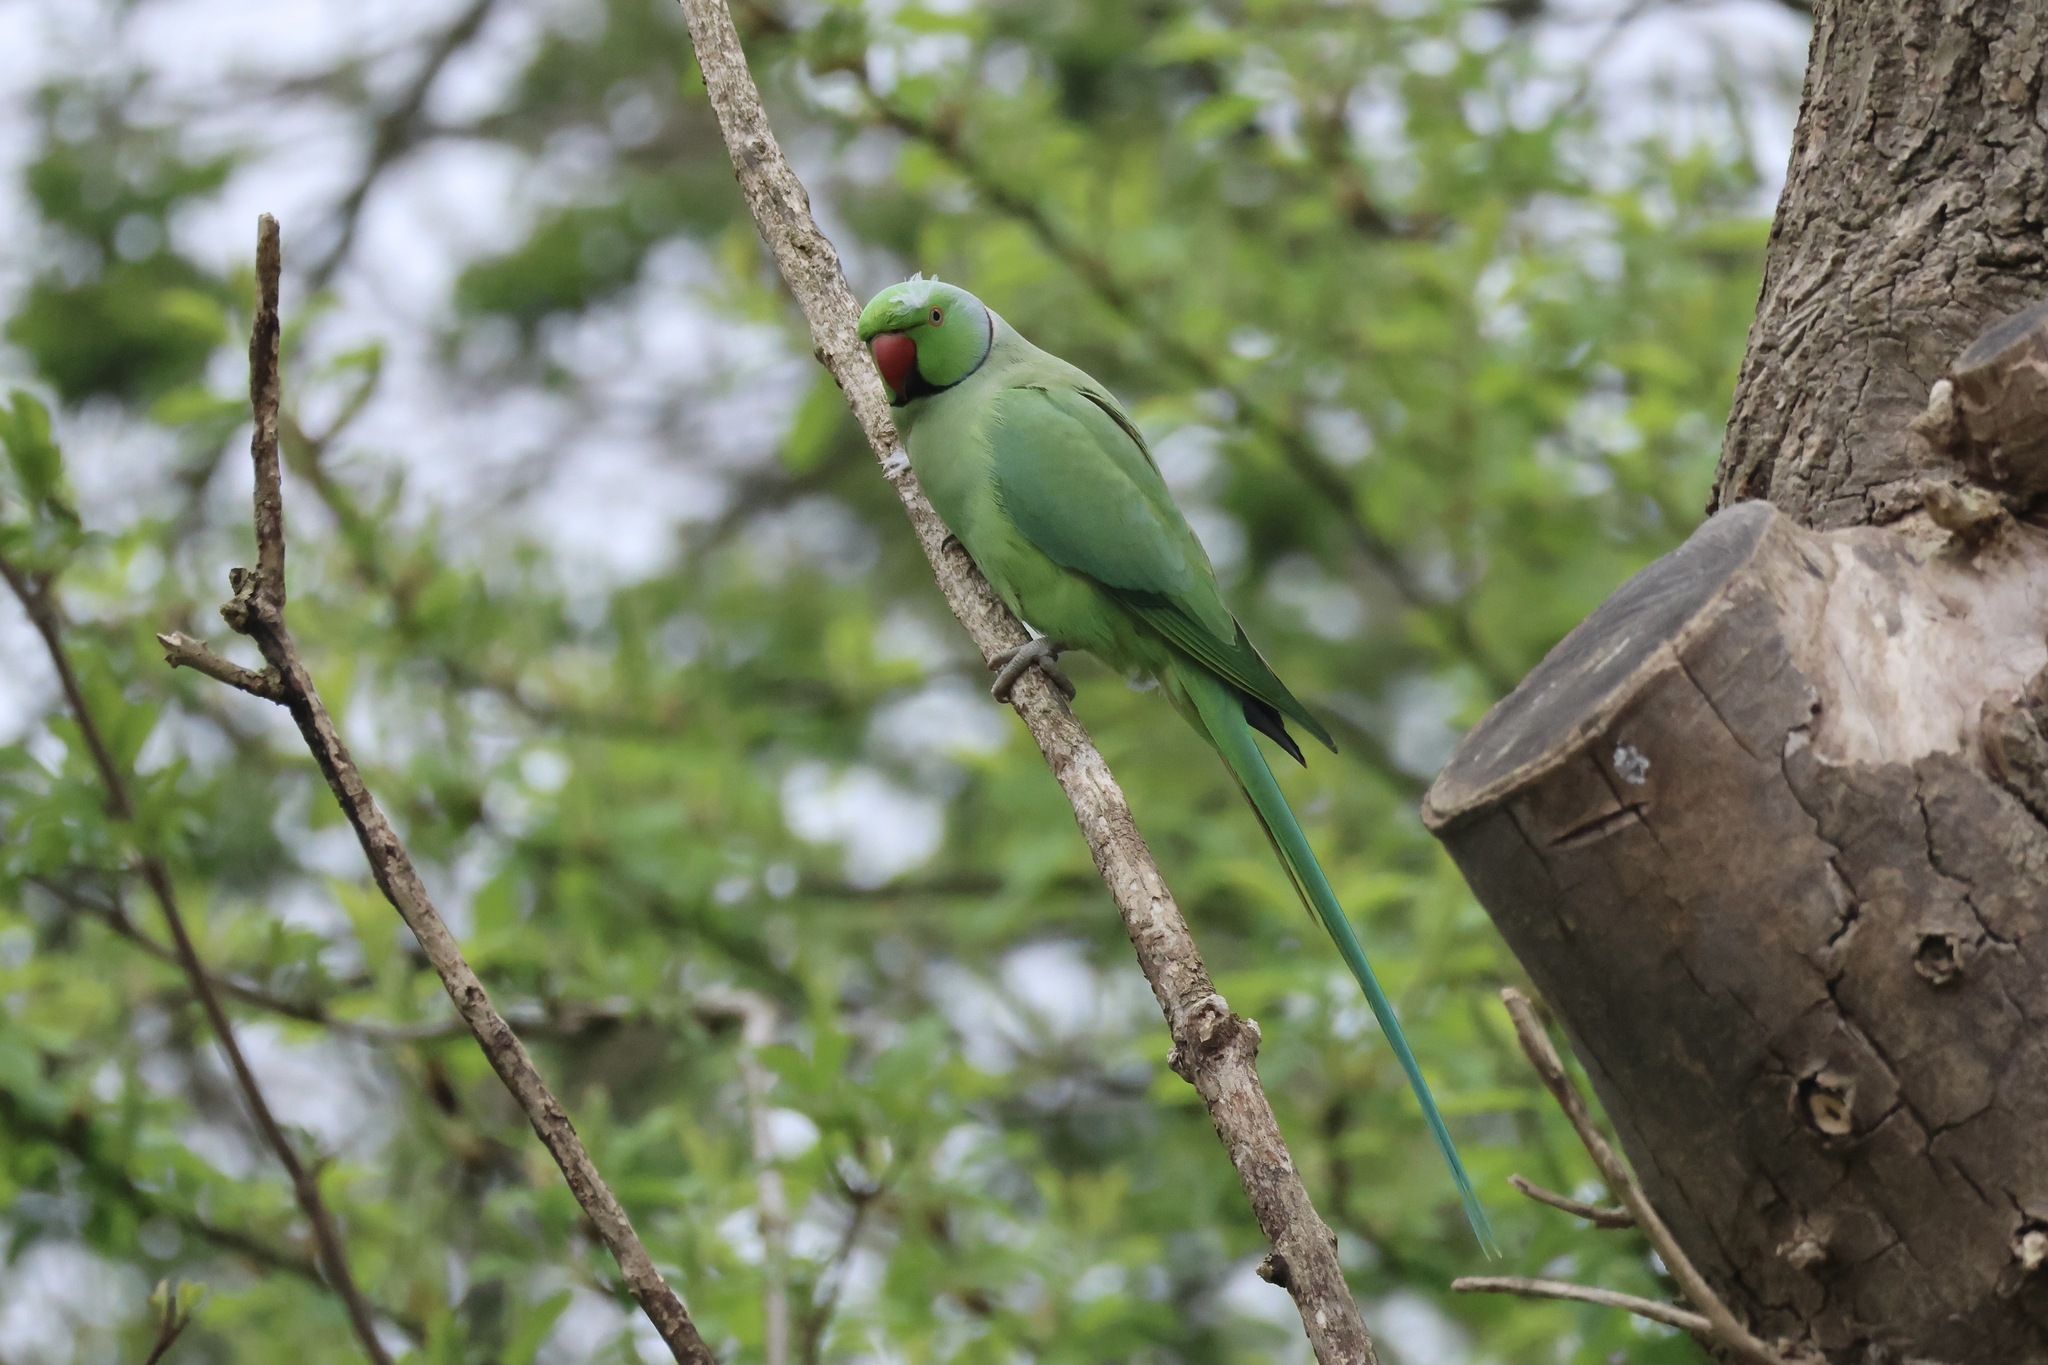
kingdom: Animalia
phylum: Chordata
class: Aves
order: Psittaciformes
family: Psittacidae
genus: Psittacula
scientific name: Psittacula krameri
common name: Rose-ringed parakeet
